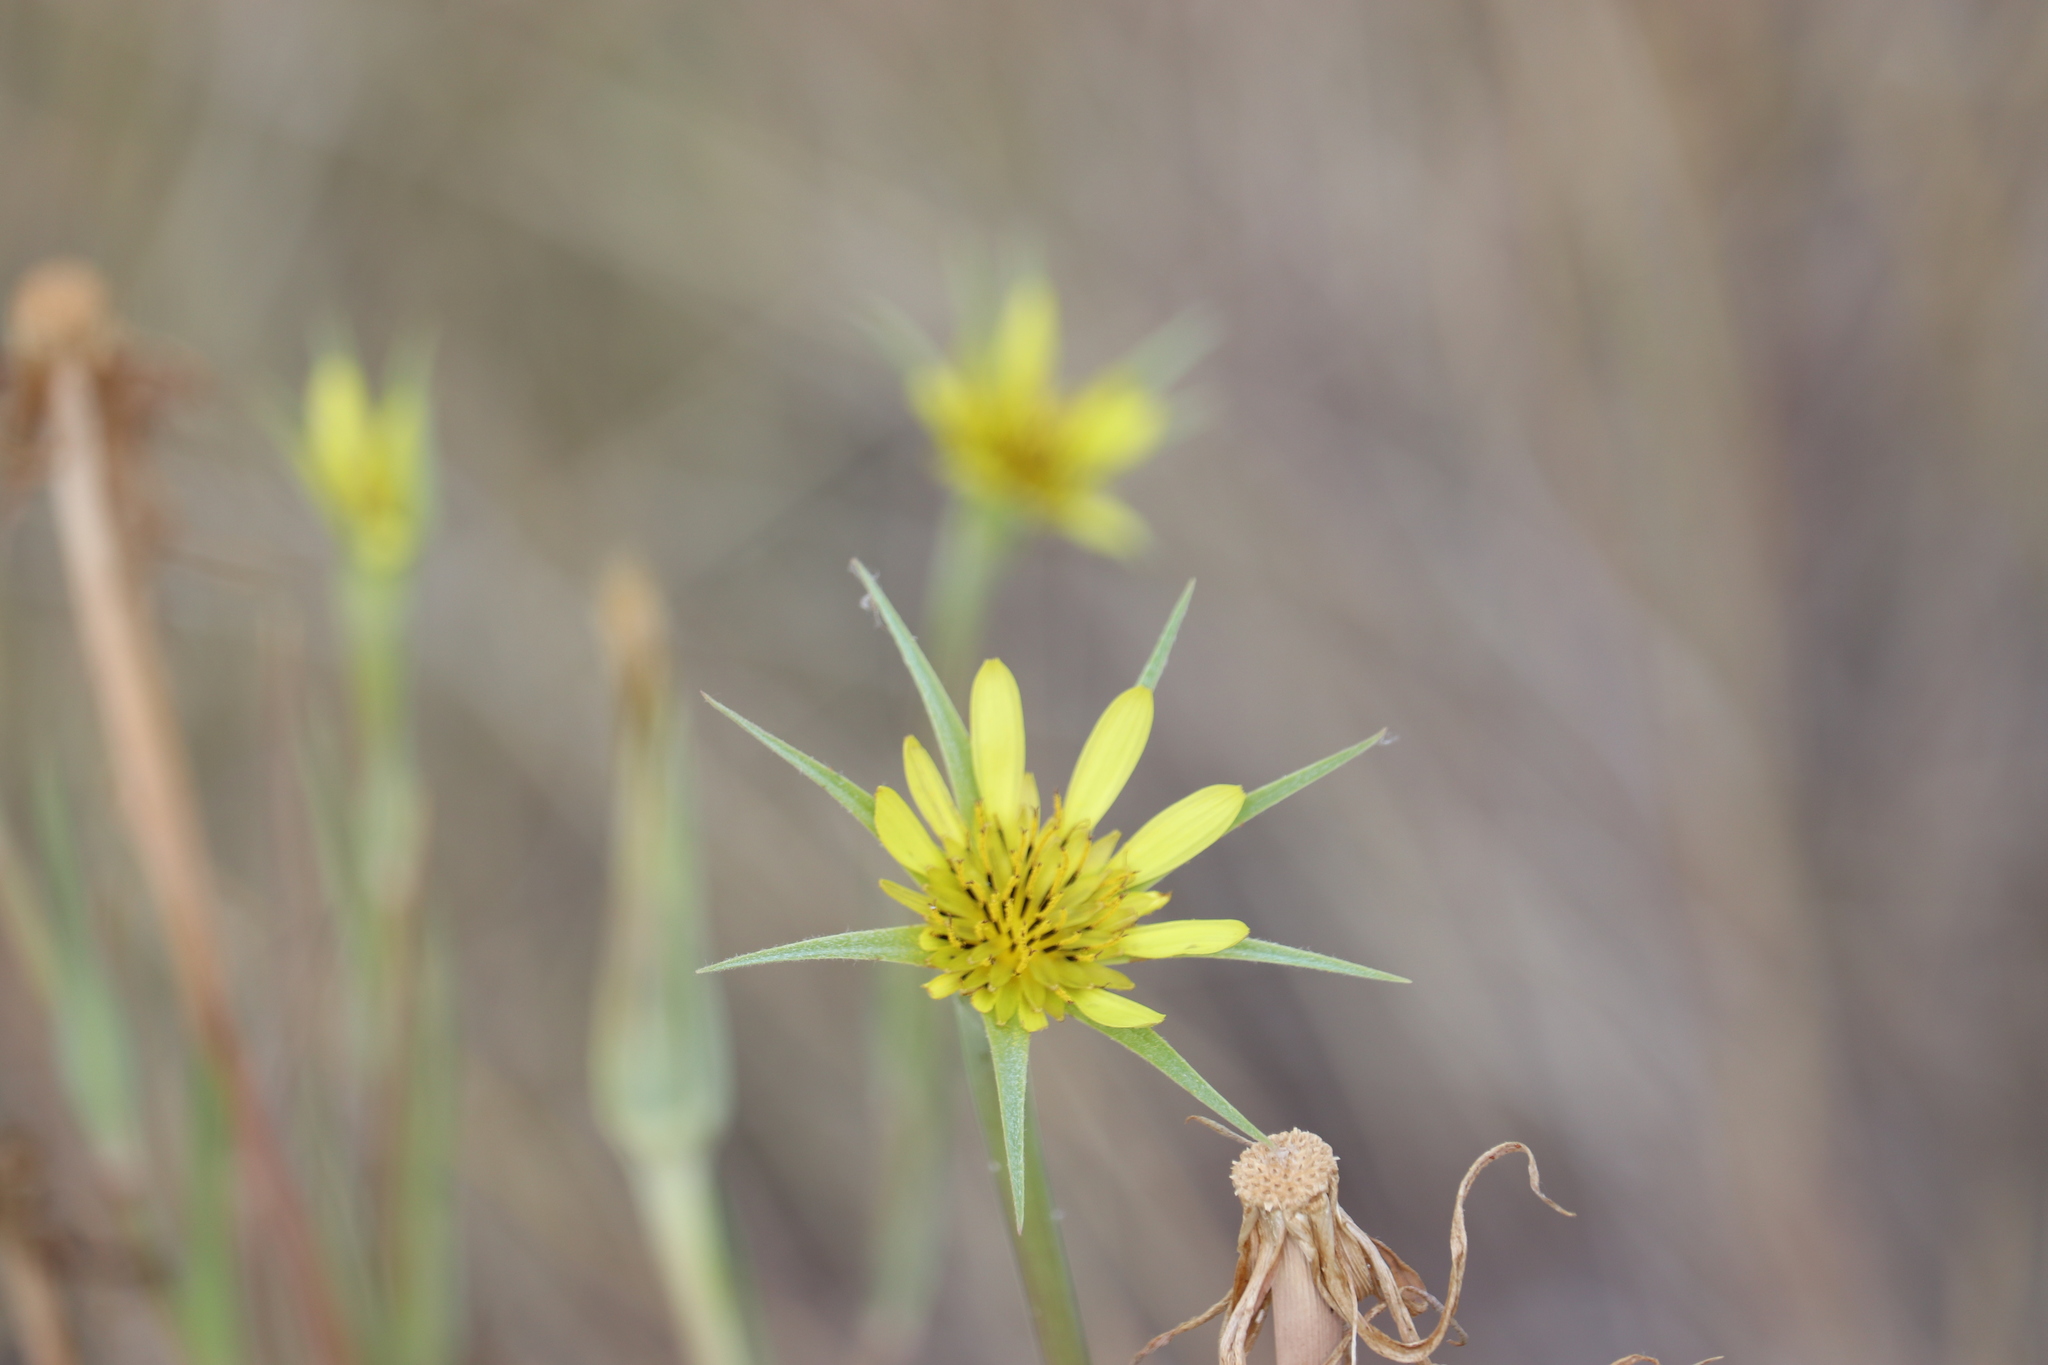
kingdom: Plantae
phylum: Tracheophyta
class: Magnoliopsida
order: Asterales
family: Asteraceae
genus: Tragopogon
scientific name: Tragopogon dubius
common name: Yellow salsify
